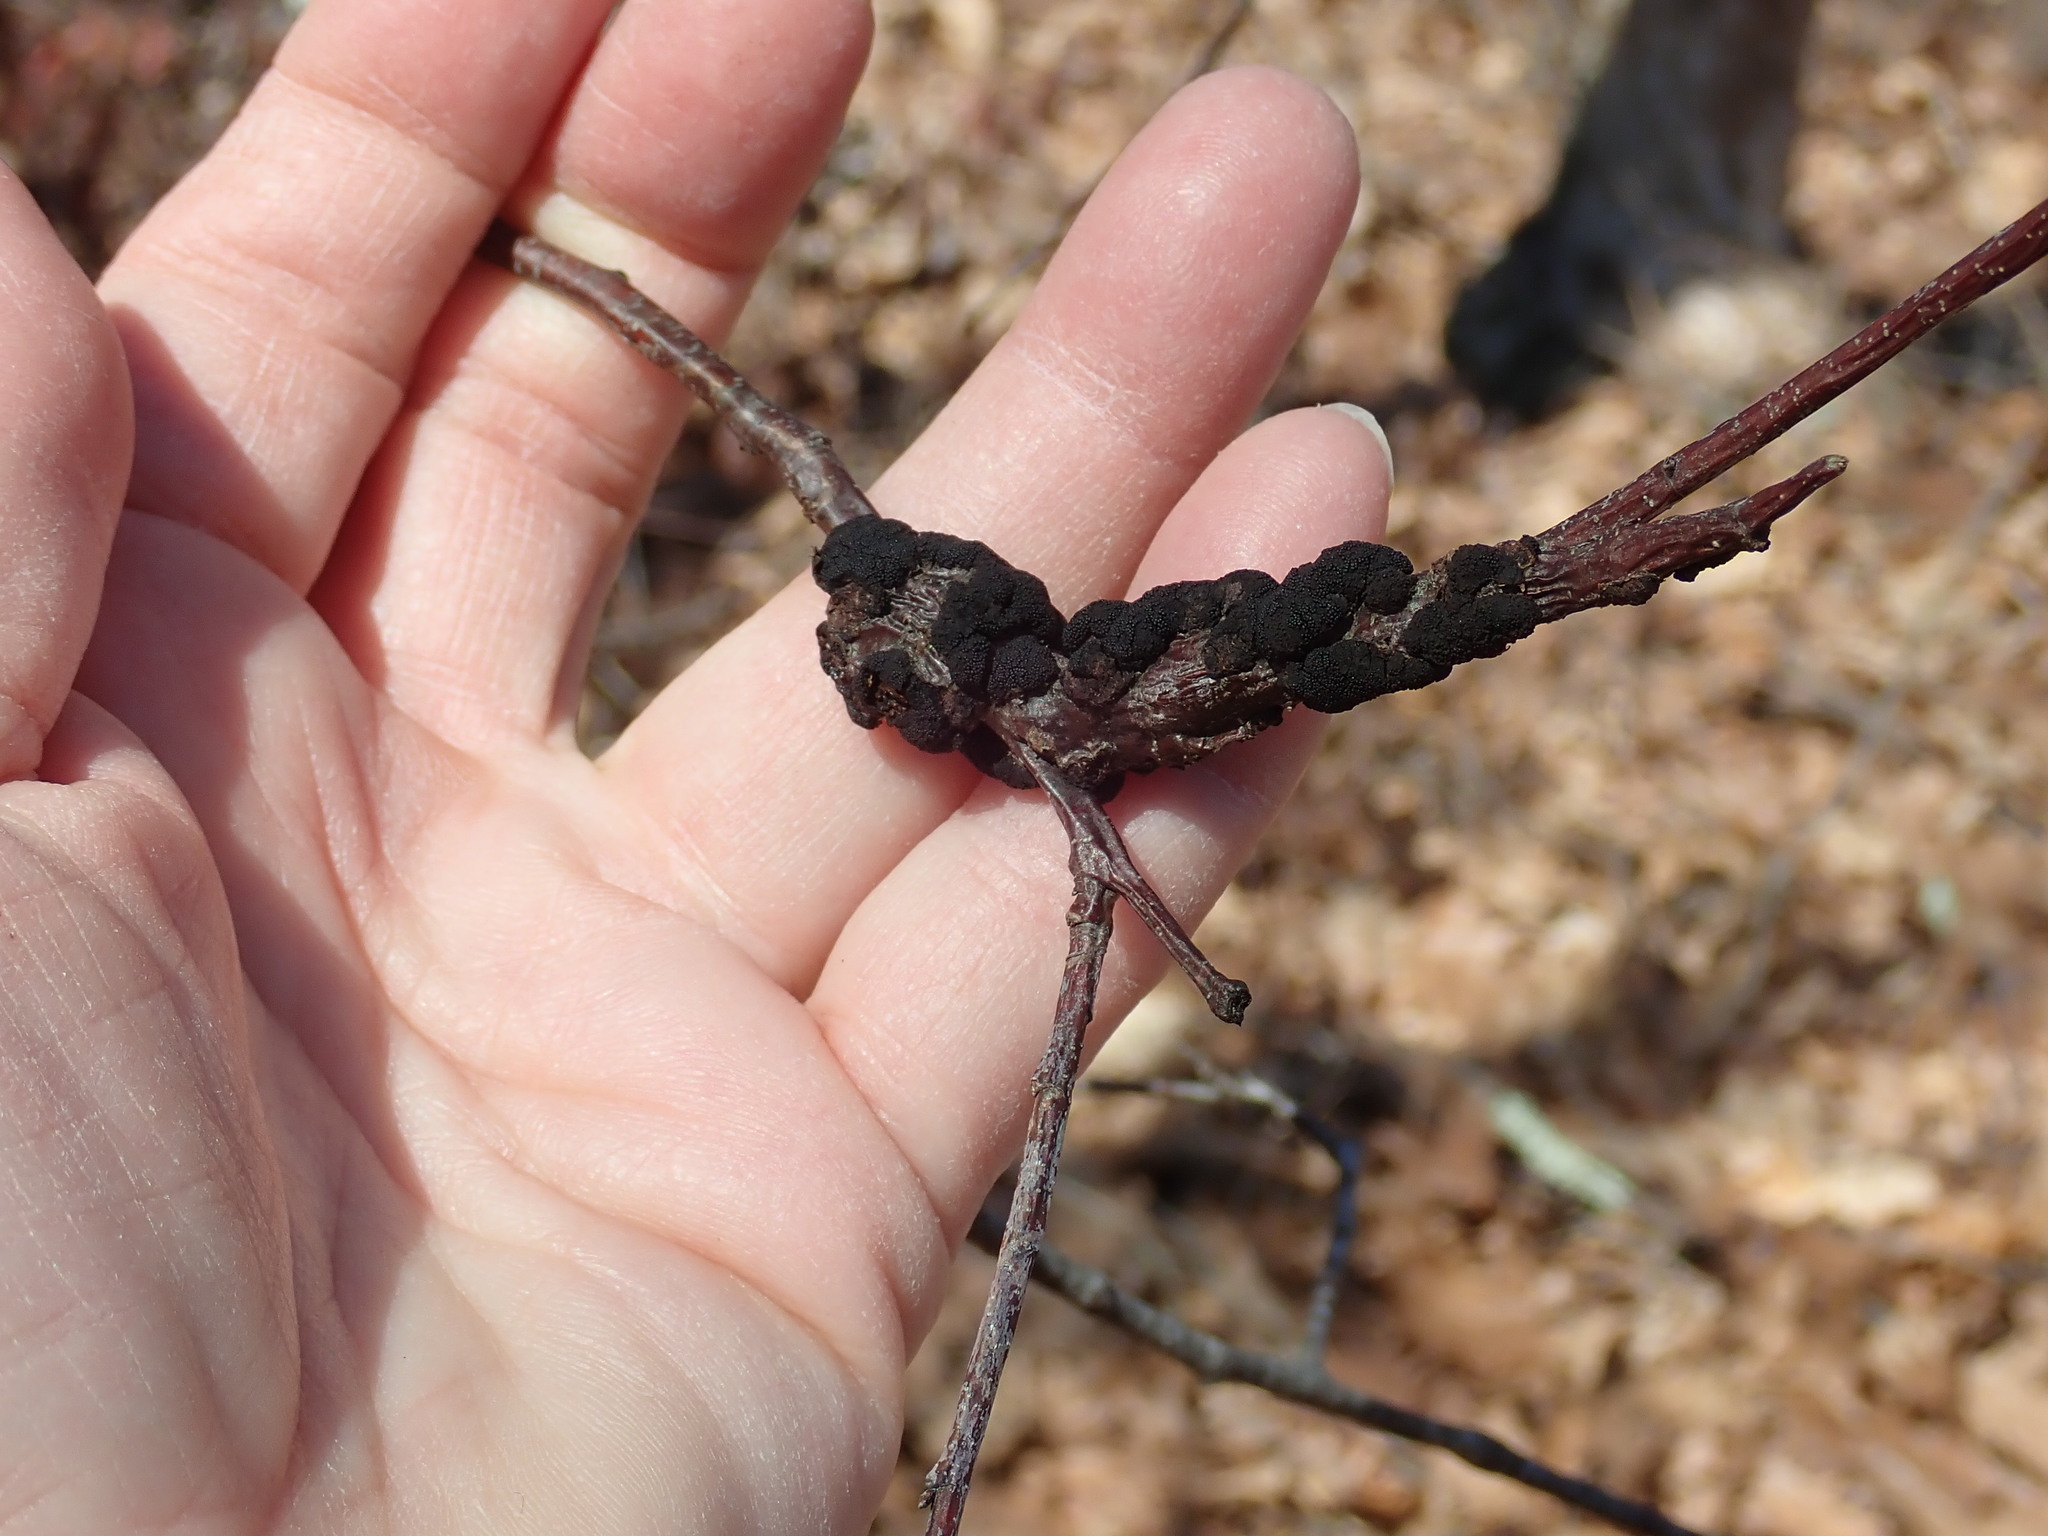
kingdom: Fungi
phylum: Ascomycota
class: Dothideomycetes
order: Venturiales
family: Venturiaceae
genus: Apiosporina
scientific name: Apiosporina morbosa
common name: Black knot
